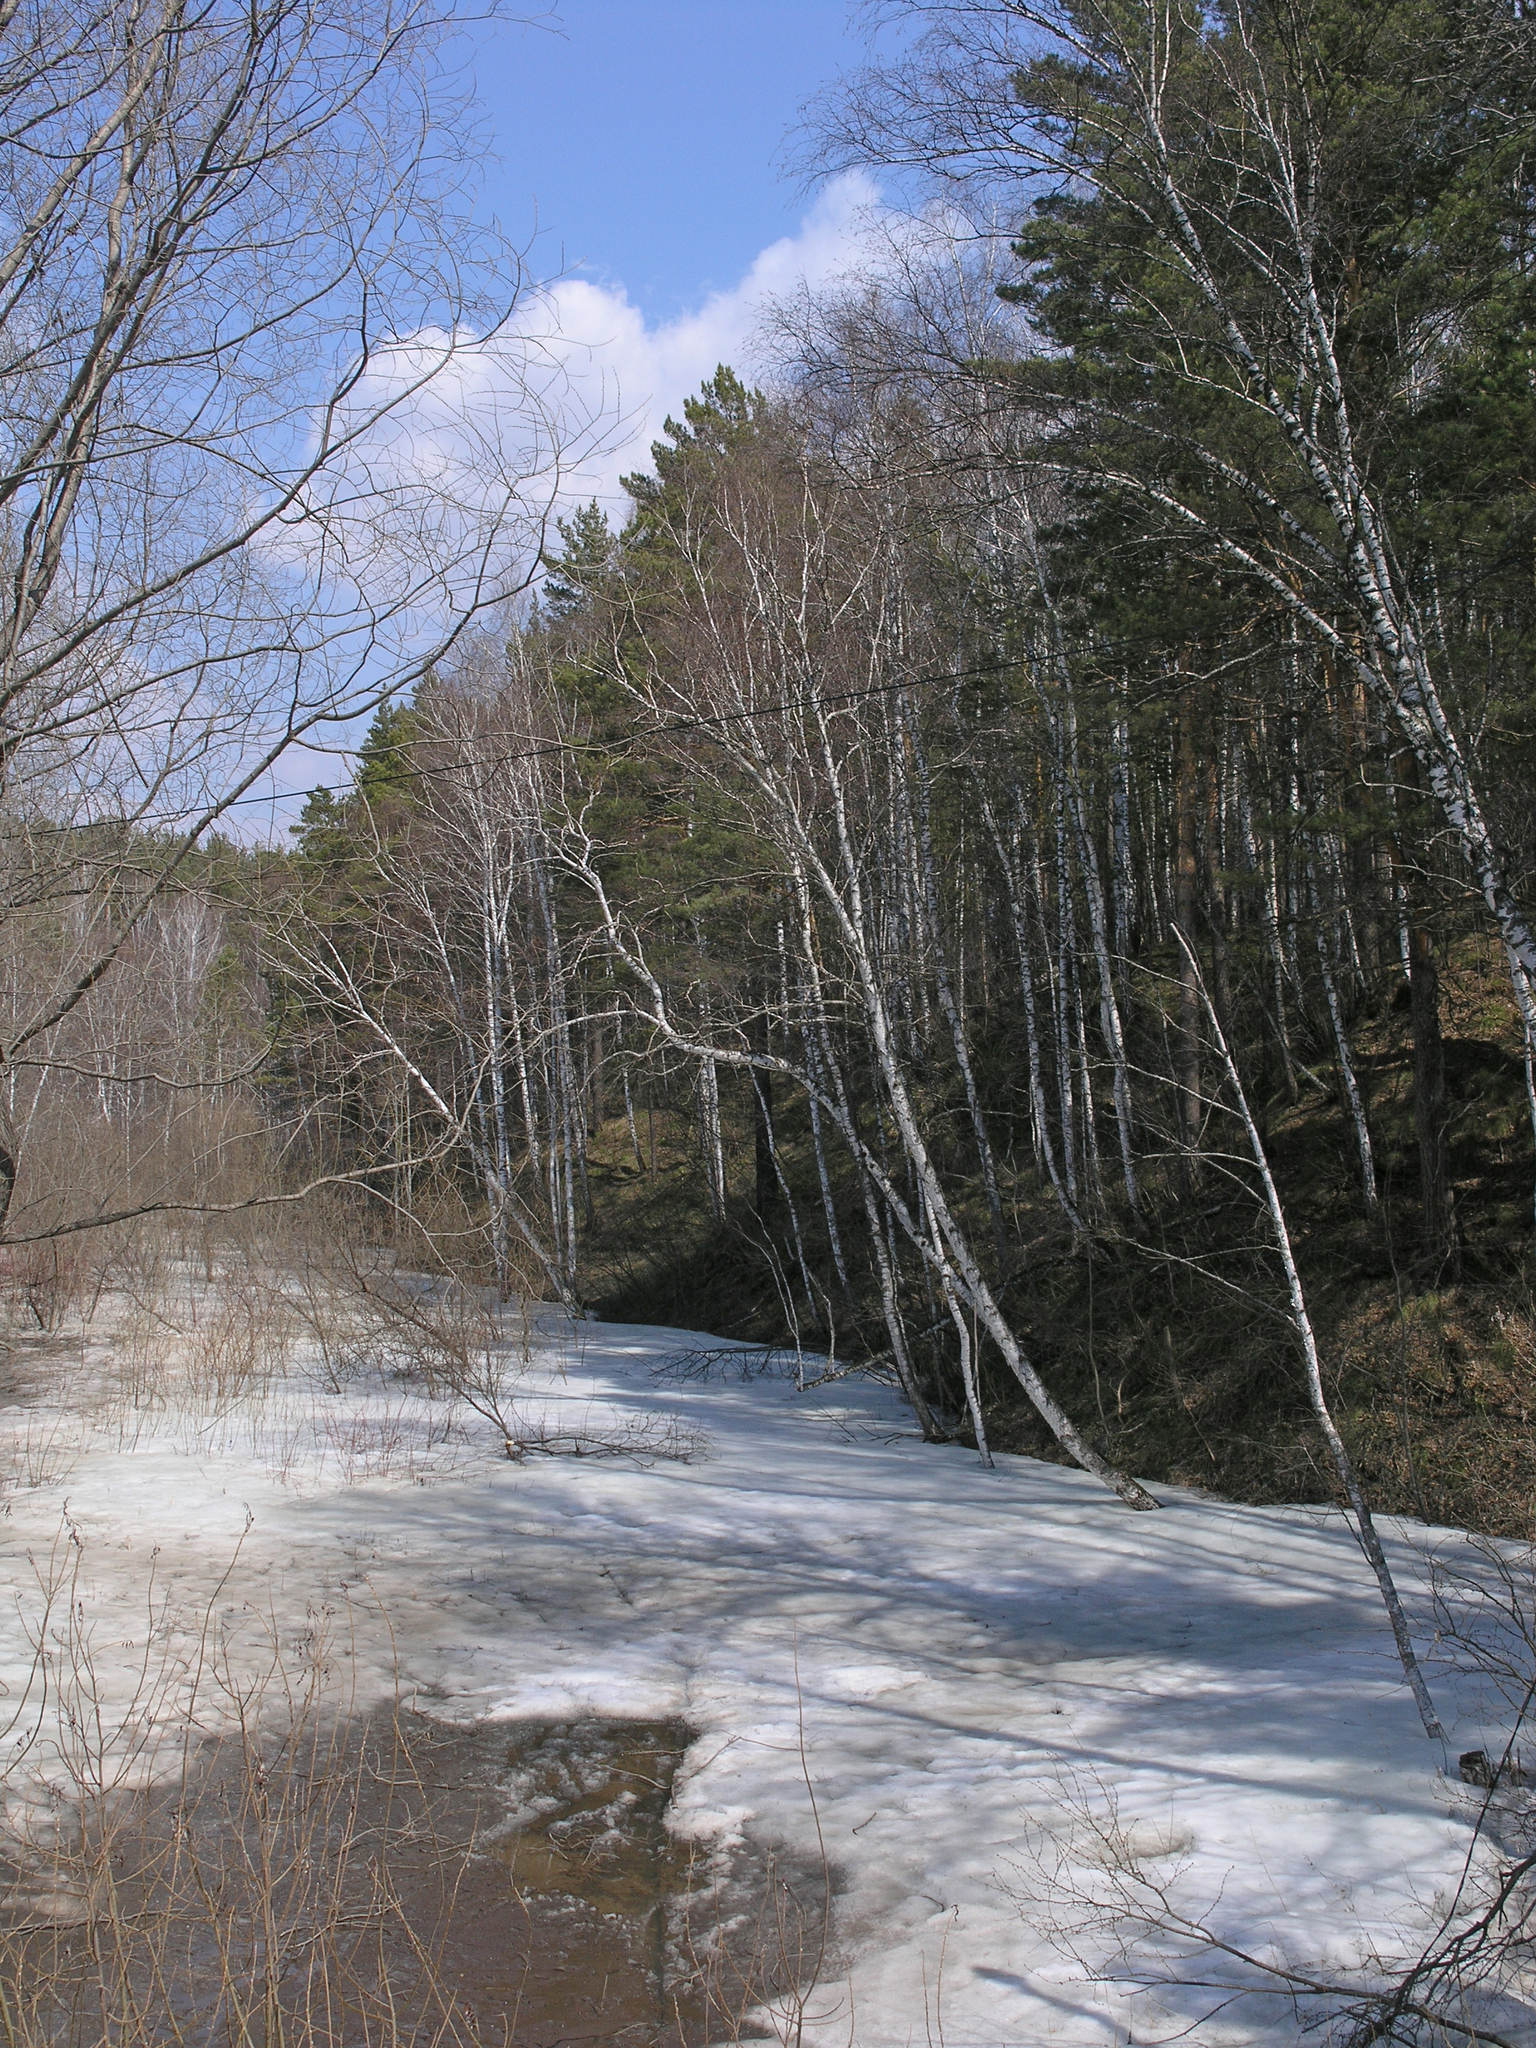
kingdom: Plantae
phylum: Tracheophyta
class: Pinopsida
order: Pinales
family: Pinaceae
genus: Pinus
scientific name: Pinus sylvestris
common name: Scots pine
